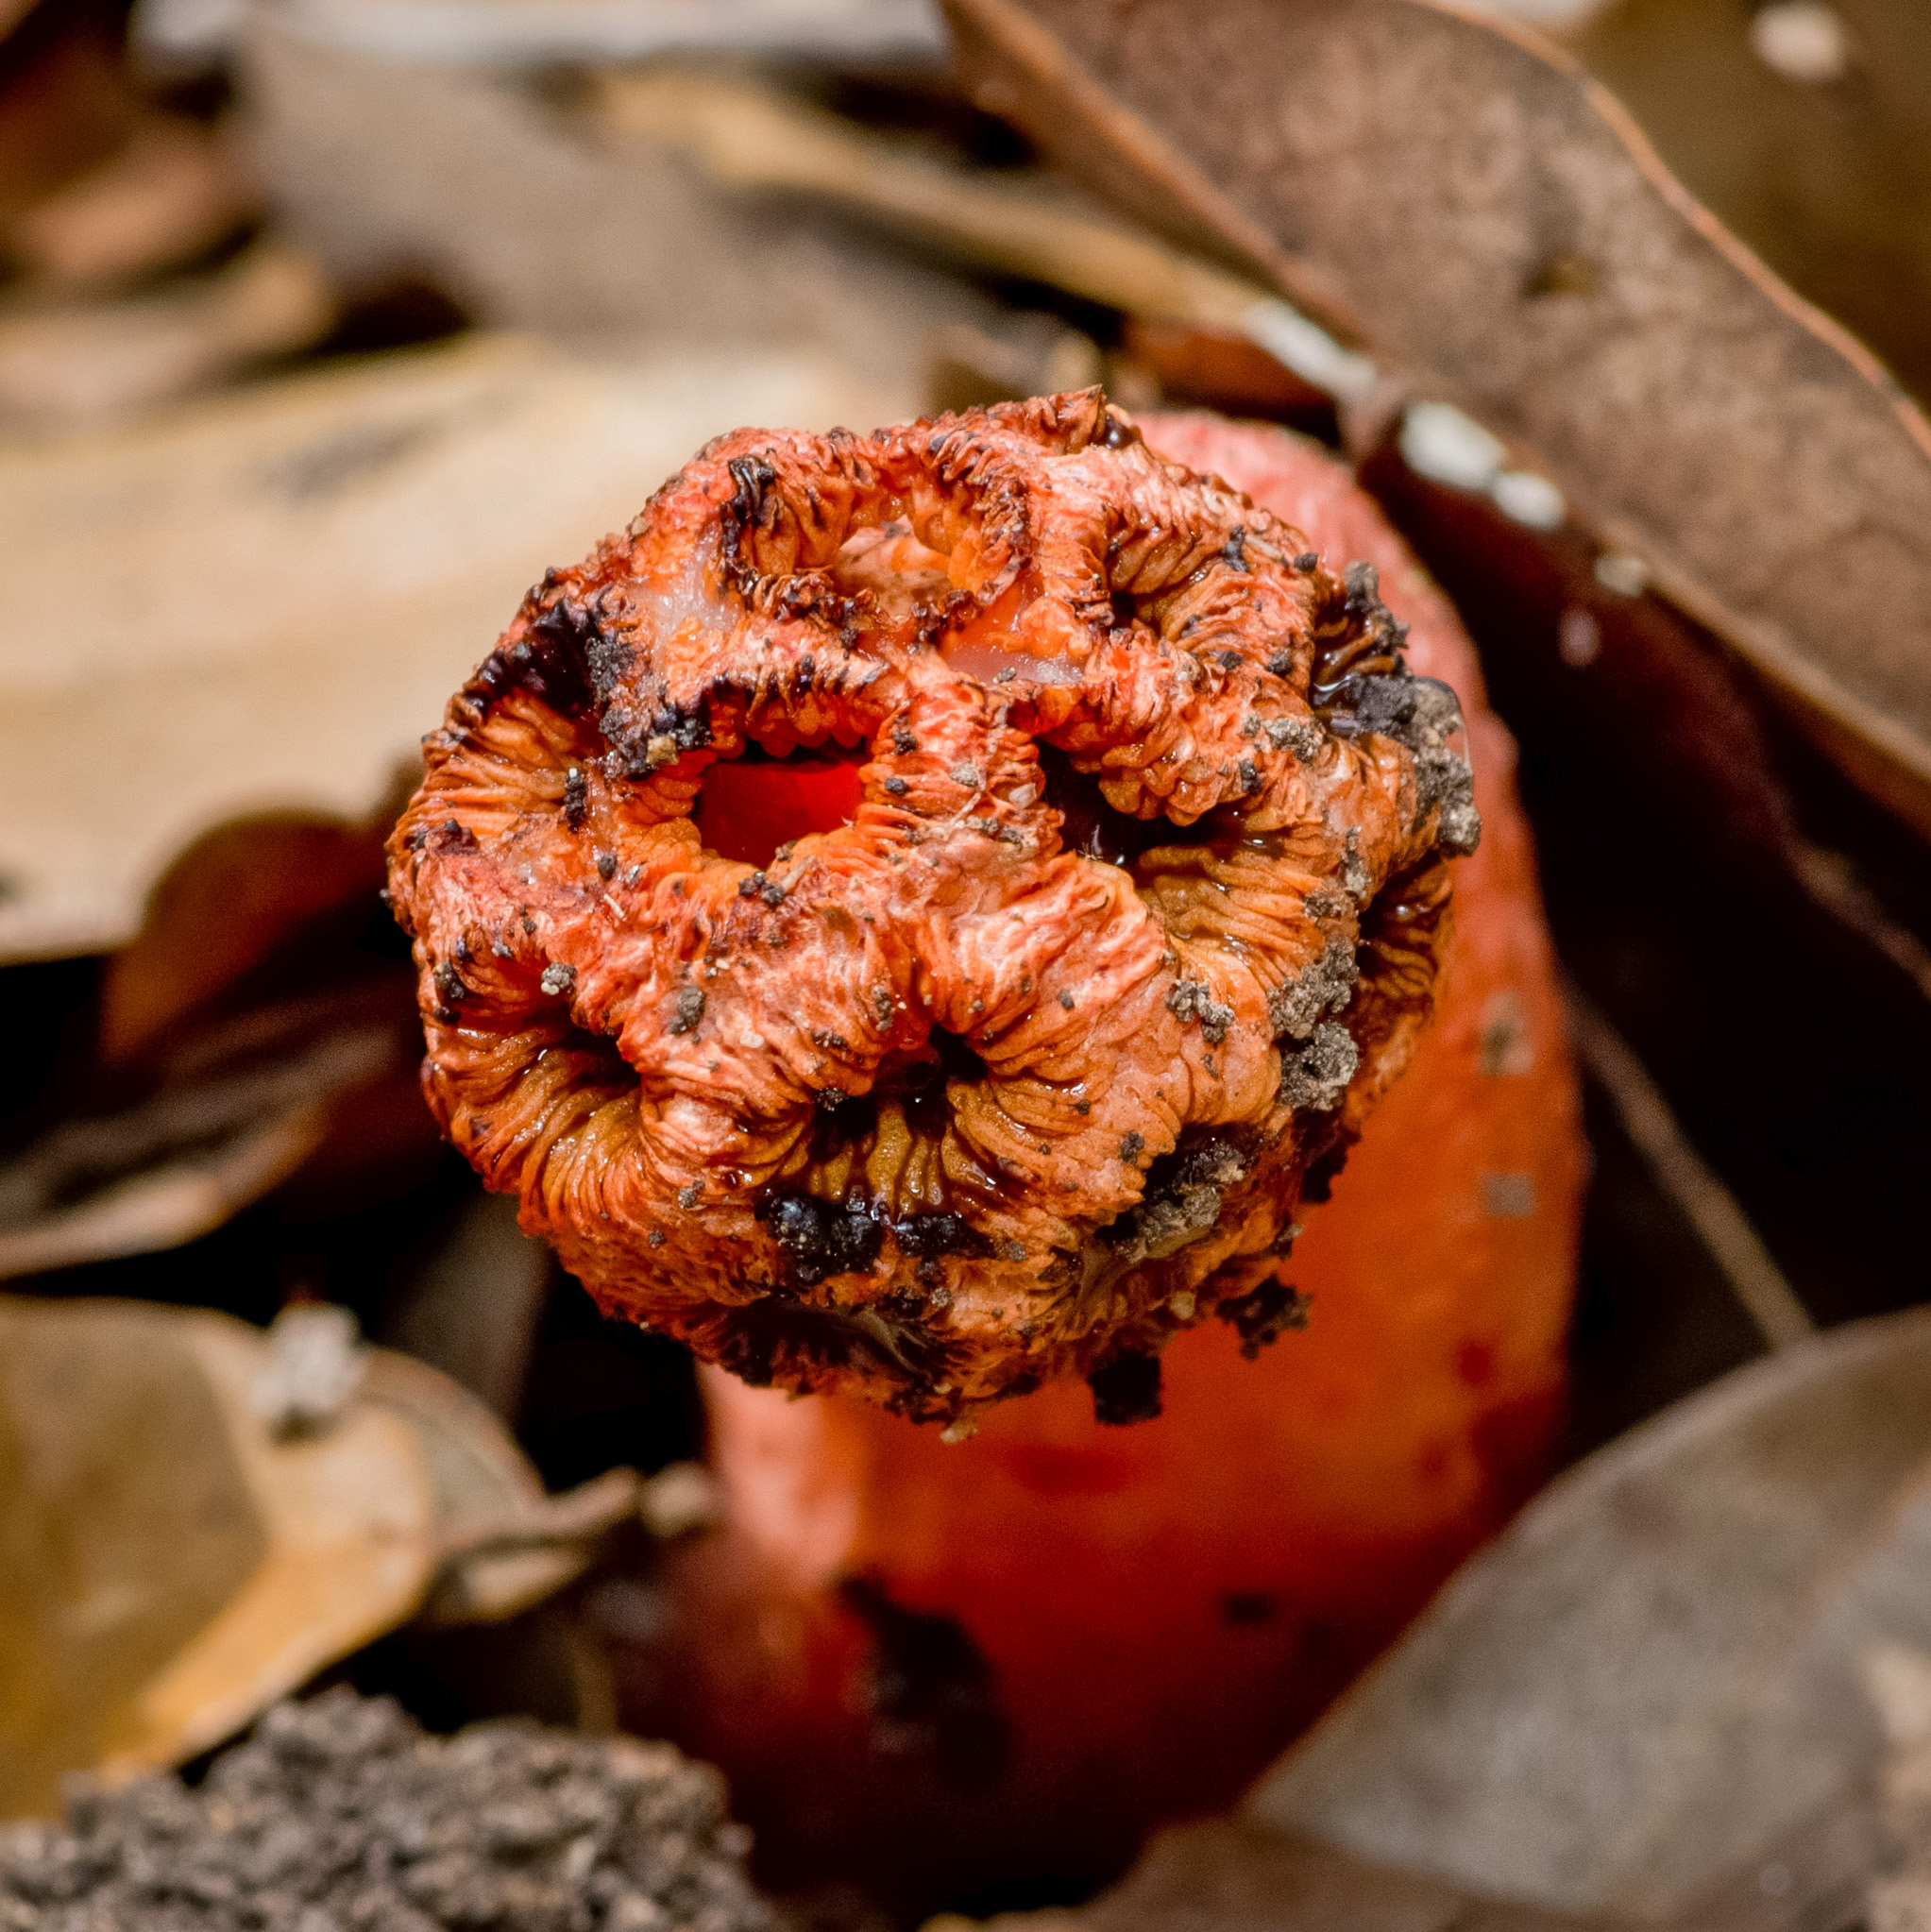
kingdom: Fungi
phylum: Basidiomycota
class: Agaricomycetes
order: Phallales
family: Phallaceae
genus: Lysurus
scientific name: Lysurus periphragmoides
